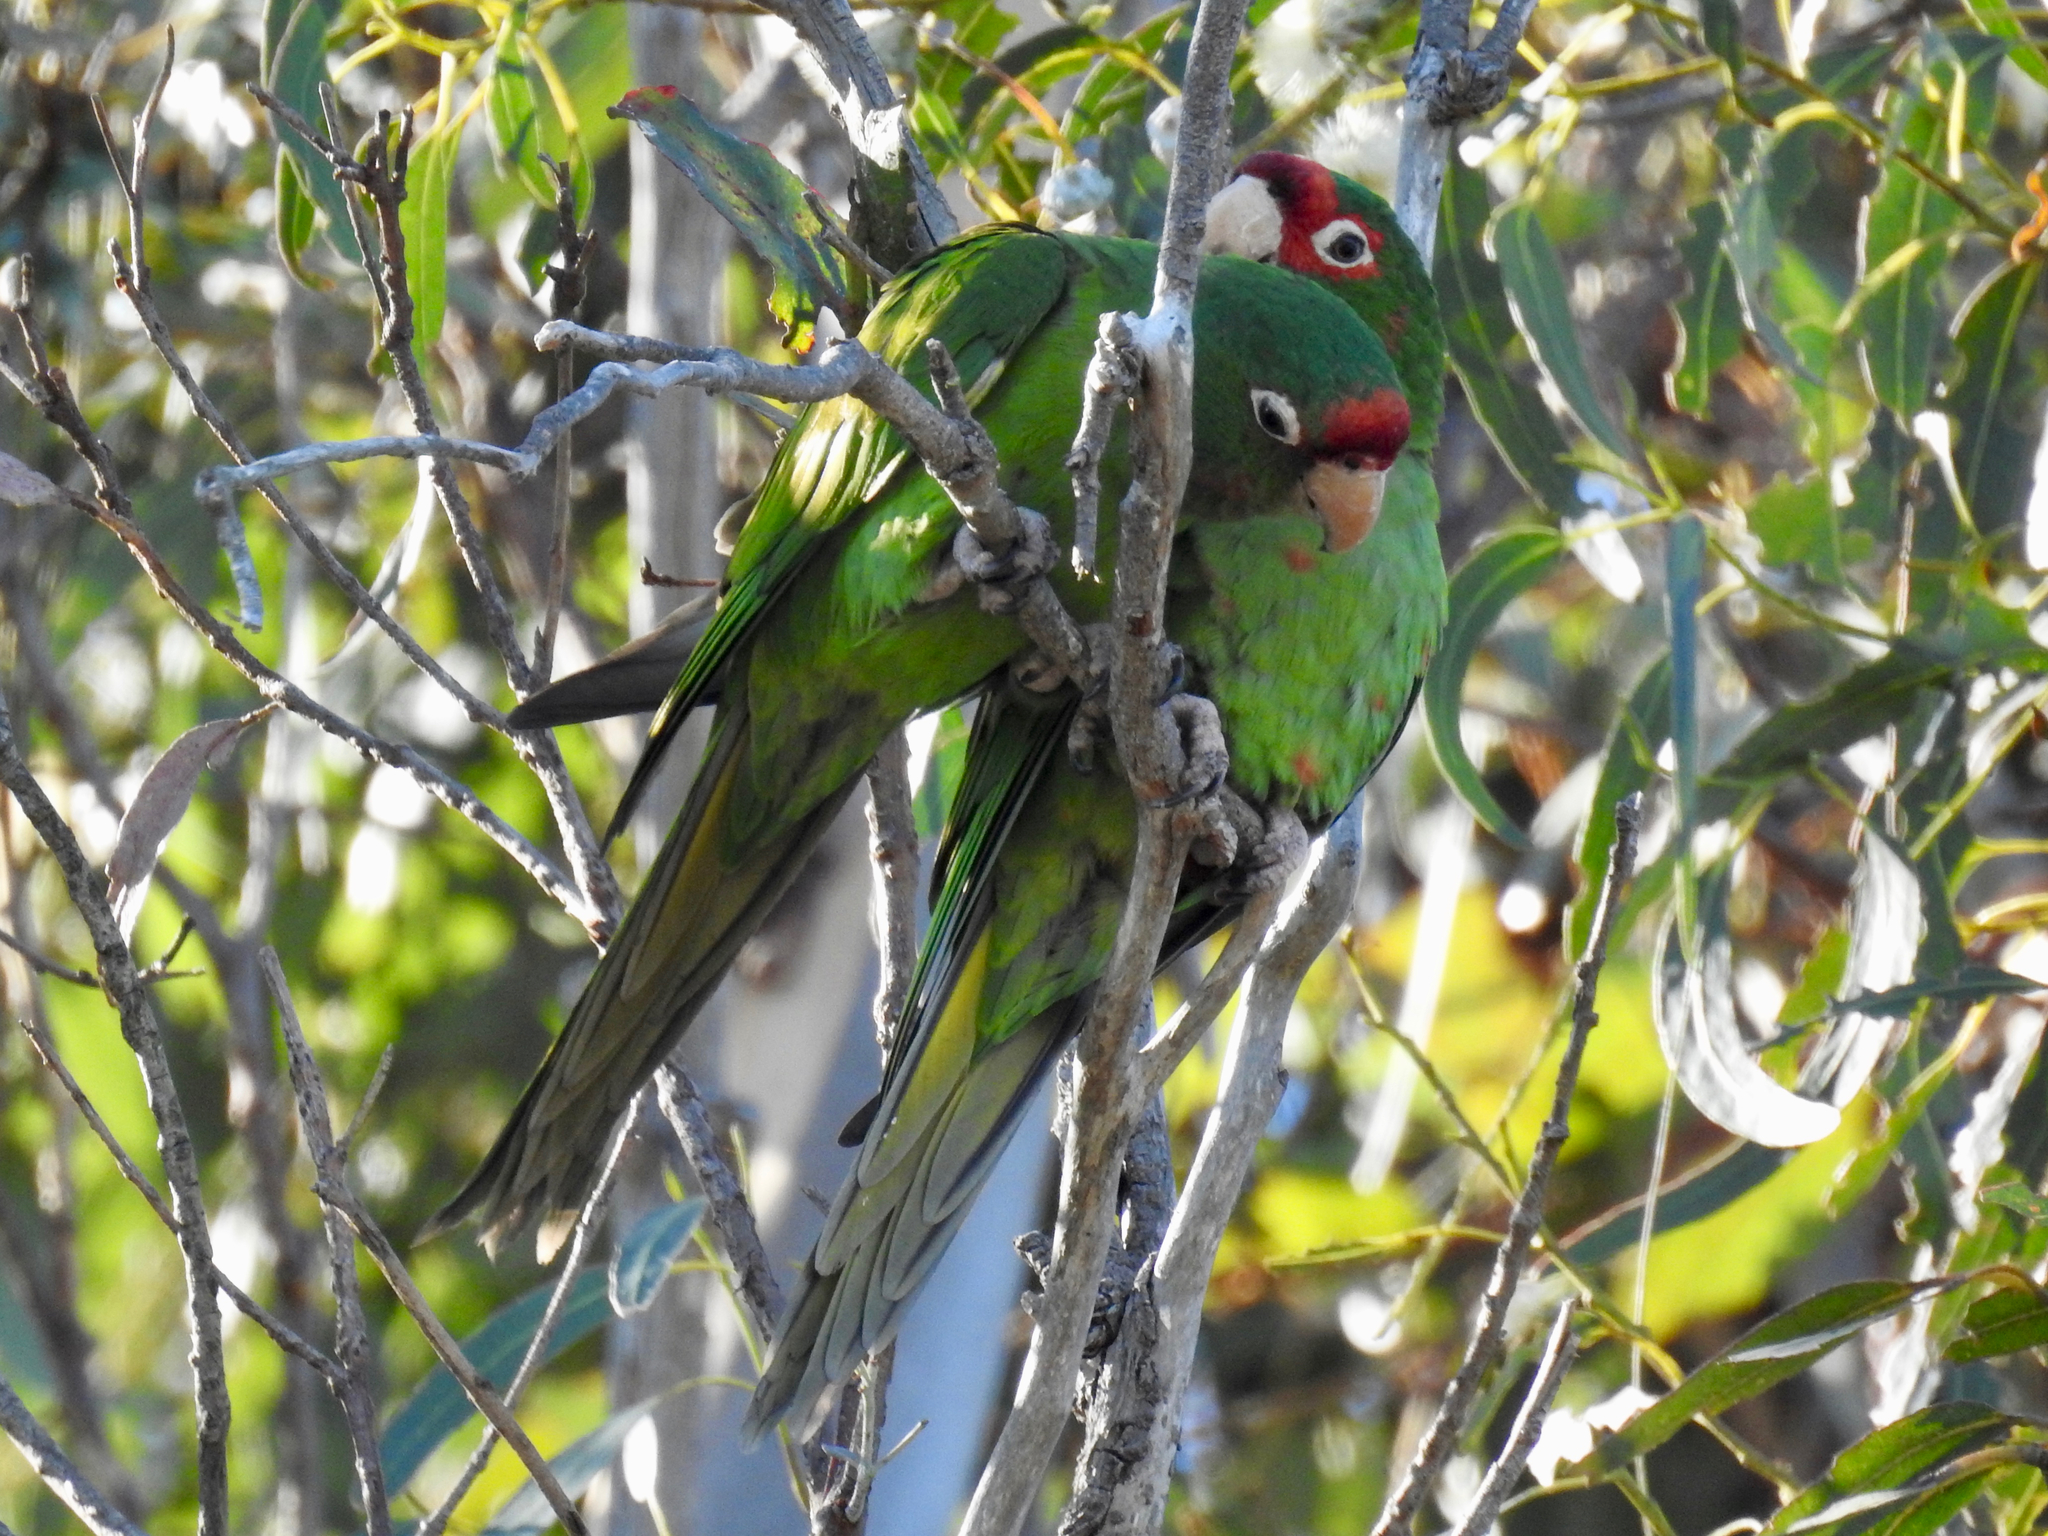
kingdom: Animalia
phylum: Chordata
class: Aves
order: Psittaciformes
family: Psittacidae
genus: Aratinga
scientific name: Aratinga mitrata
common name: Mitred parakeet
